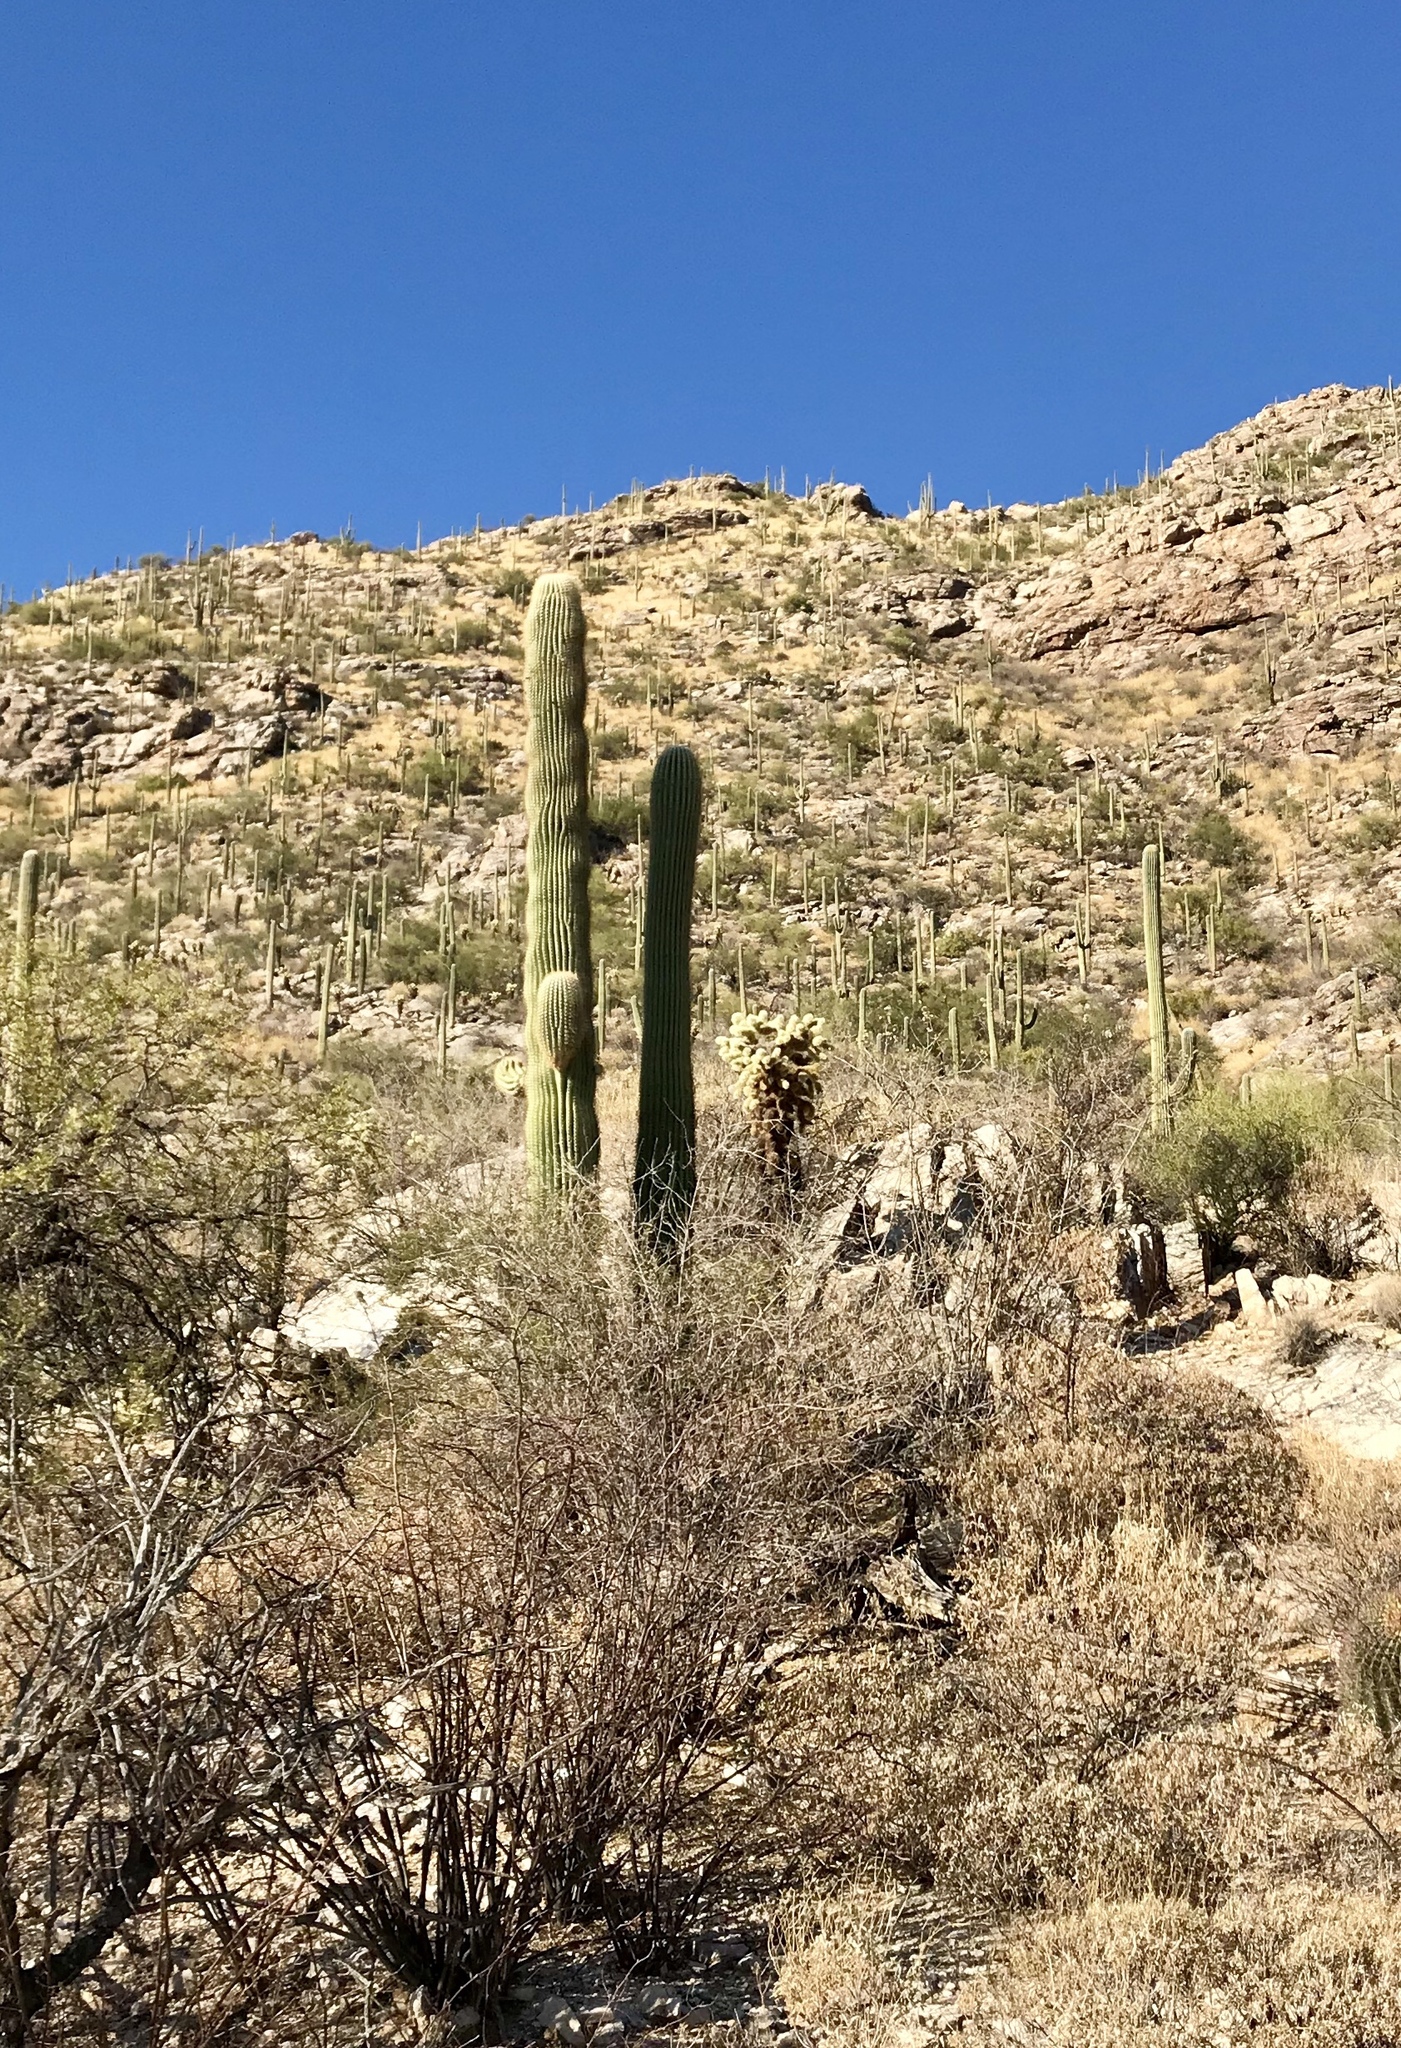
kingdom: Plantae
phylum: Tracheophyta
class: Magnoliopsida
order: Caryophyllales
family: Cactaceae
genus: Carnegiea
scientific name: Carnegiea gigantea
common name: Saguaro
